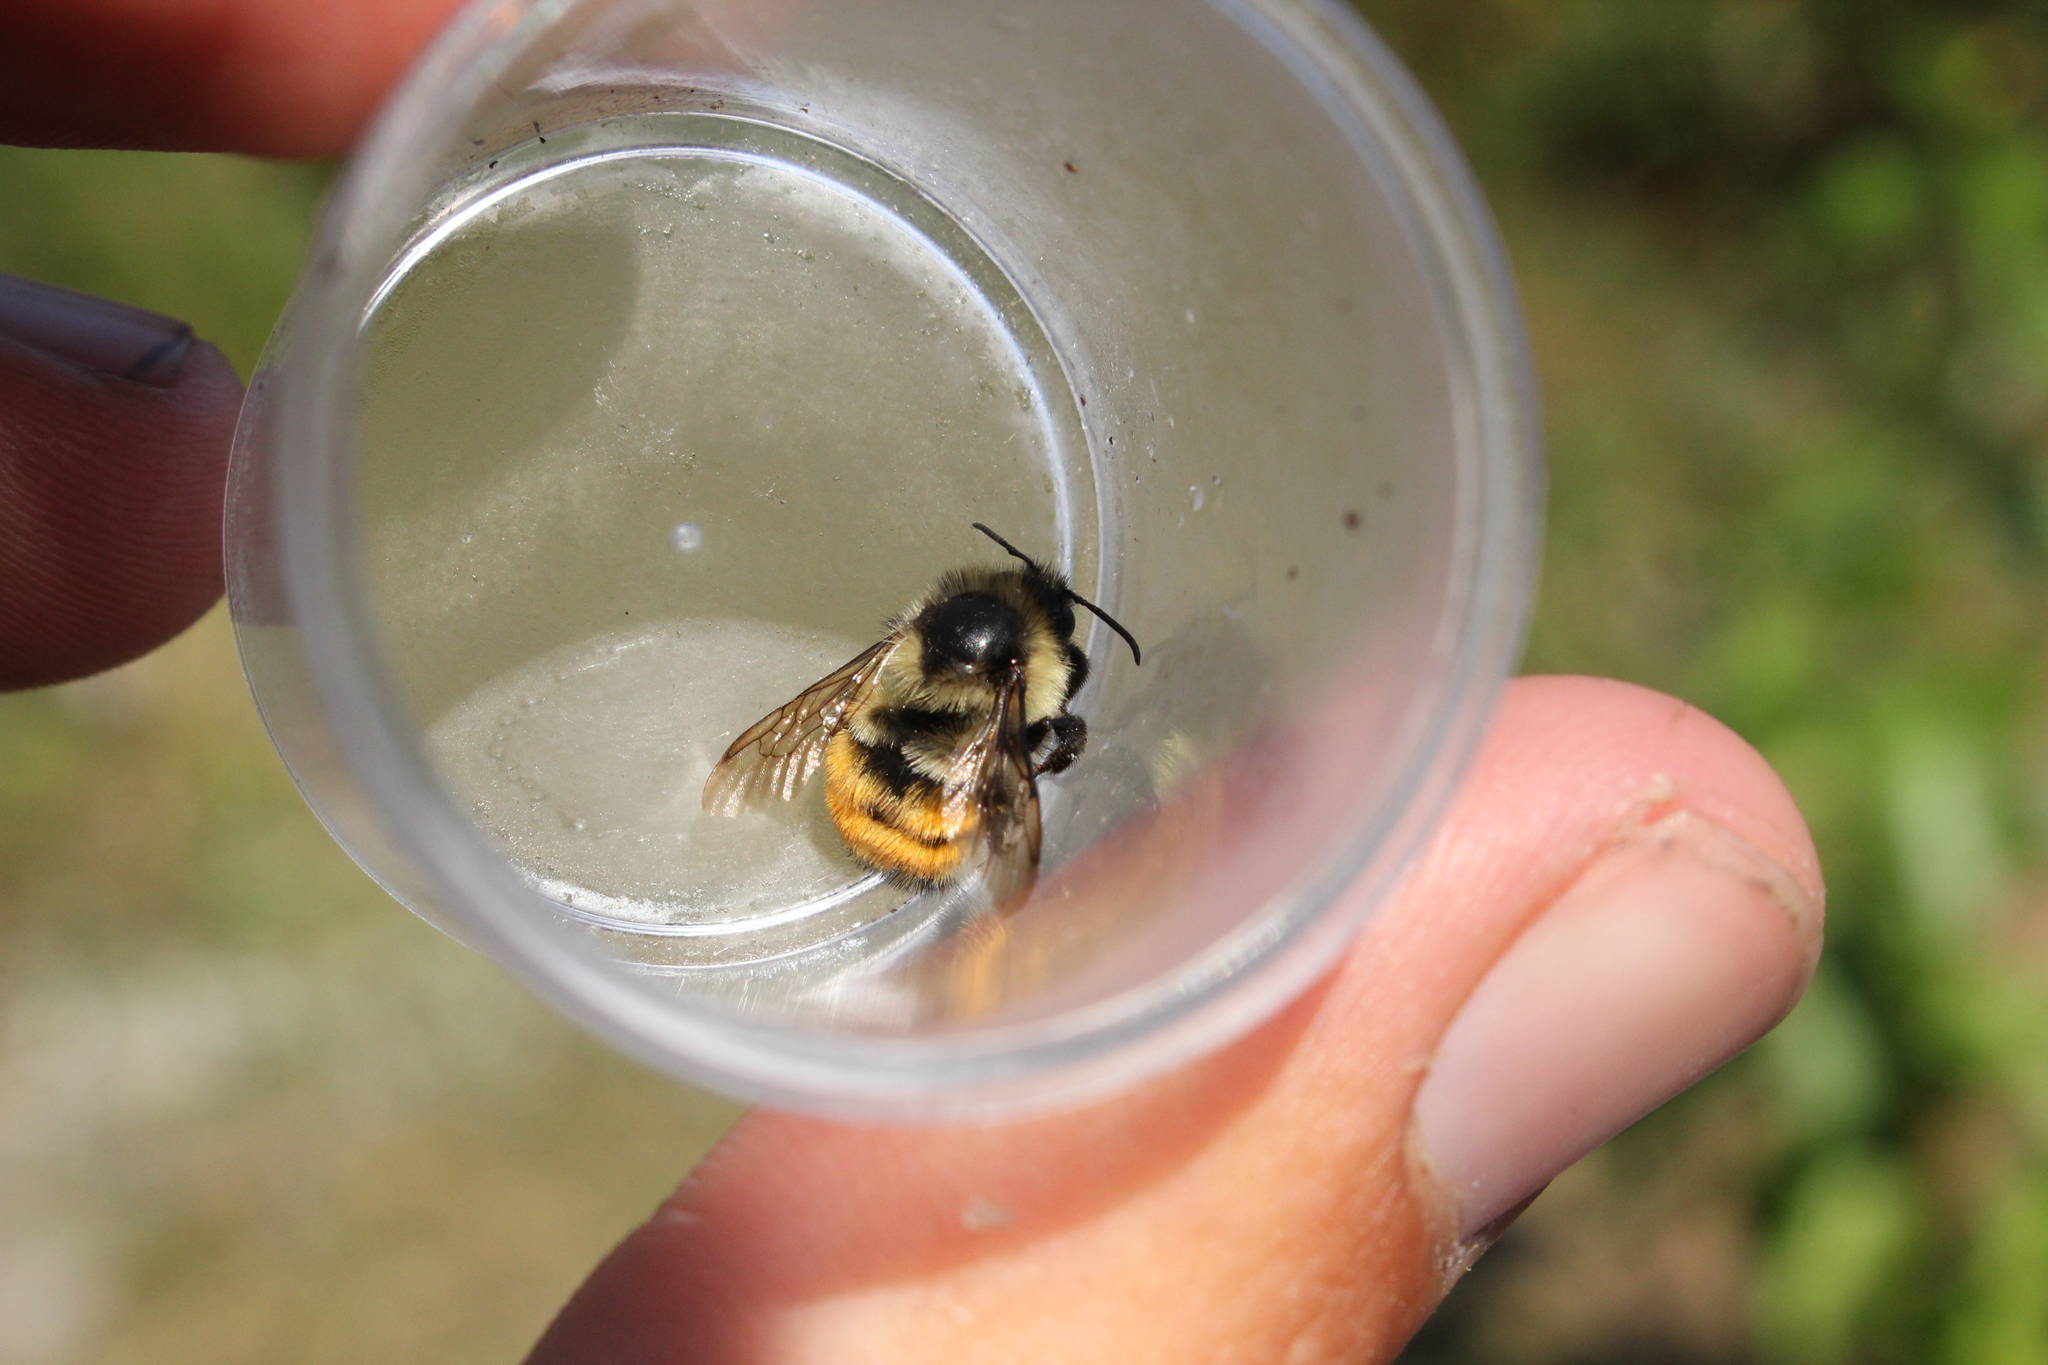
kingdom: Animalia
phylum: Arthropoda
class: Insecta
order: Hymenoptera
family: Apidae
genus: Bombus
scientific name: Bombus ternarius
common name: Tri-colored bumble bee
